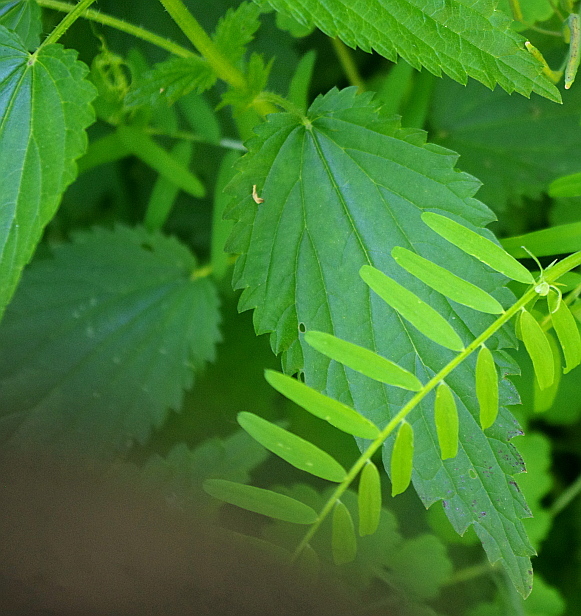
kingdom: Plantae
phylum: Tracheophyta
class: Magnoliopsida
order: Rosales
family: Urticaceae
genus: Urtica
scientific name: Urtica dioica
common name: Common nettle
